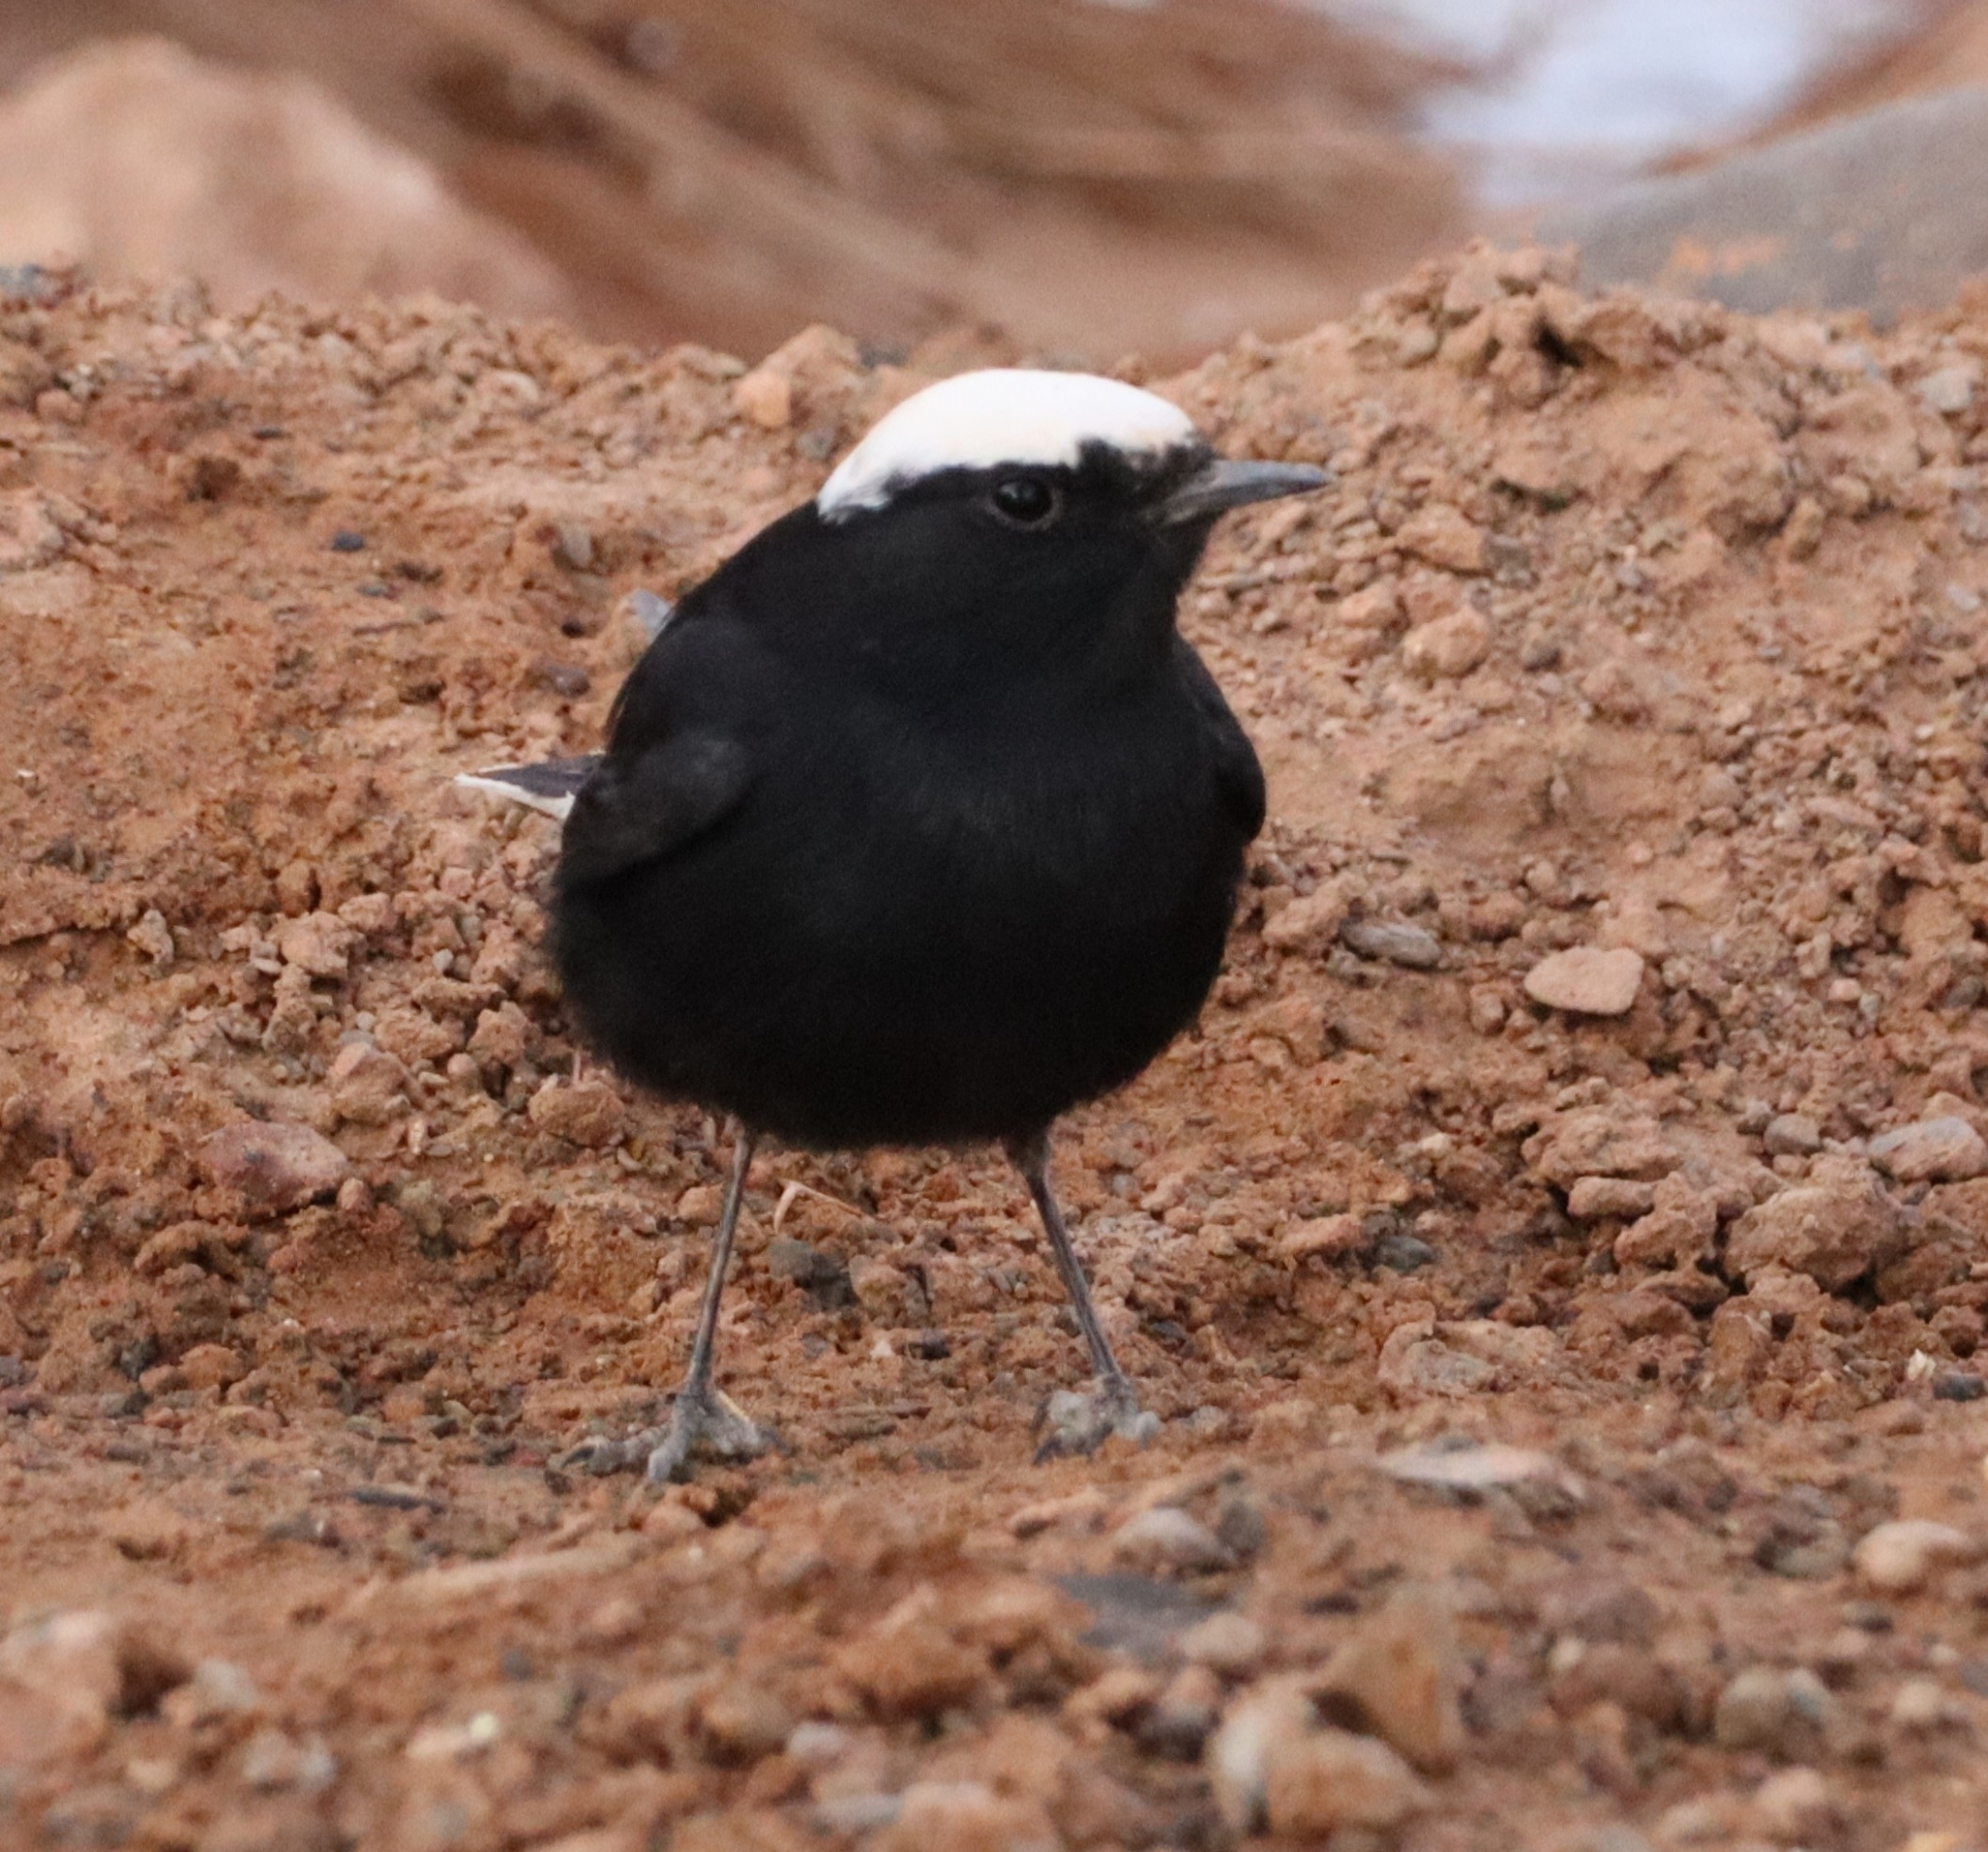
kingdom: Animalia
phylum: Chordata
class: Aves
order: Passeriformes
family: Muscicapidae
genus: Oenanthe
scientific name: Oenanthe leucopyga
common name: White-crowned wheatear
